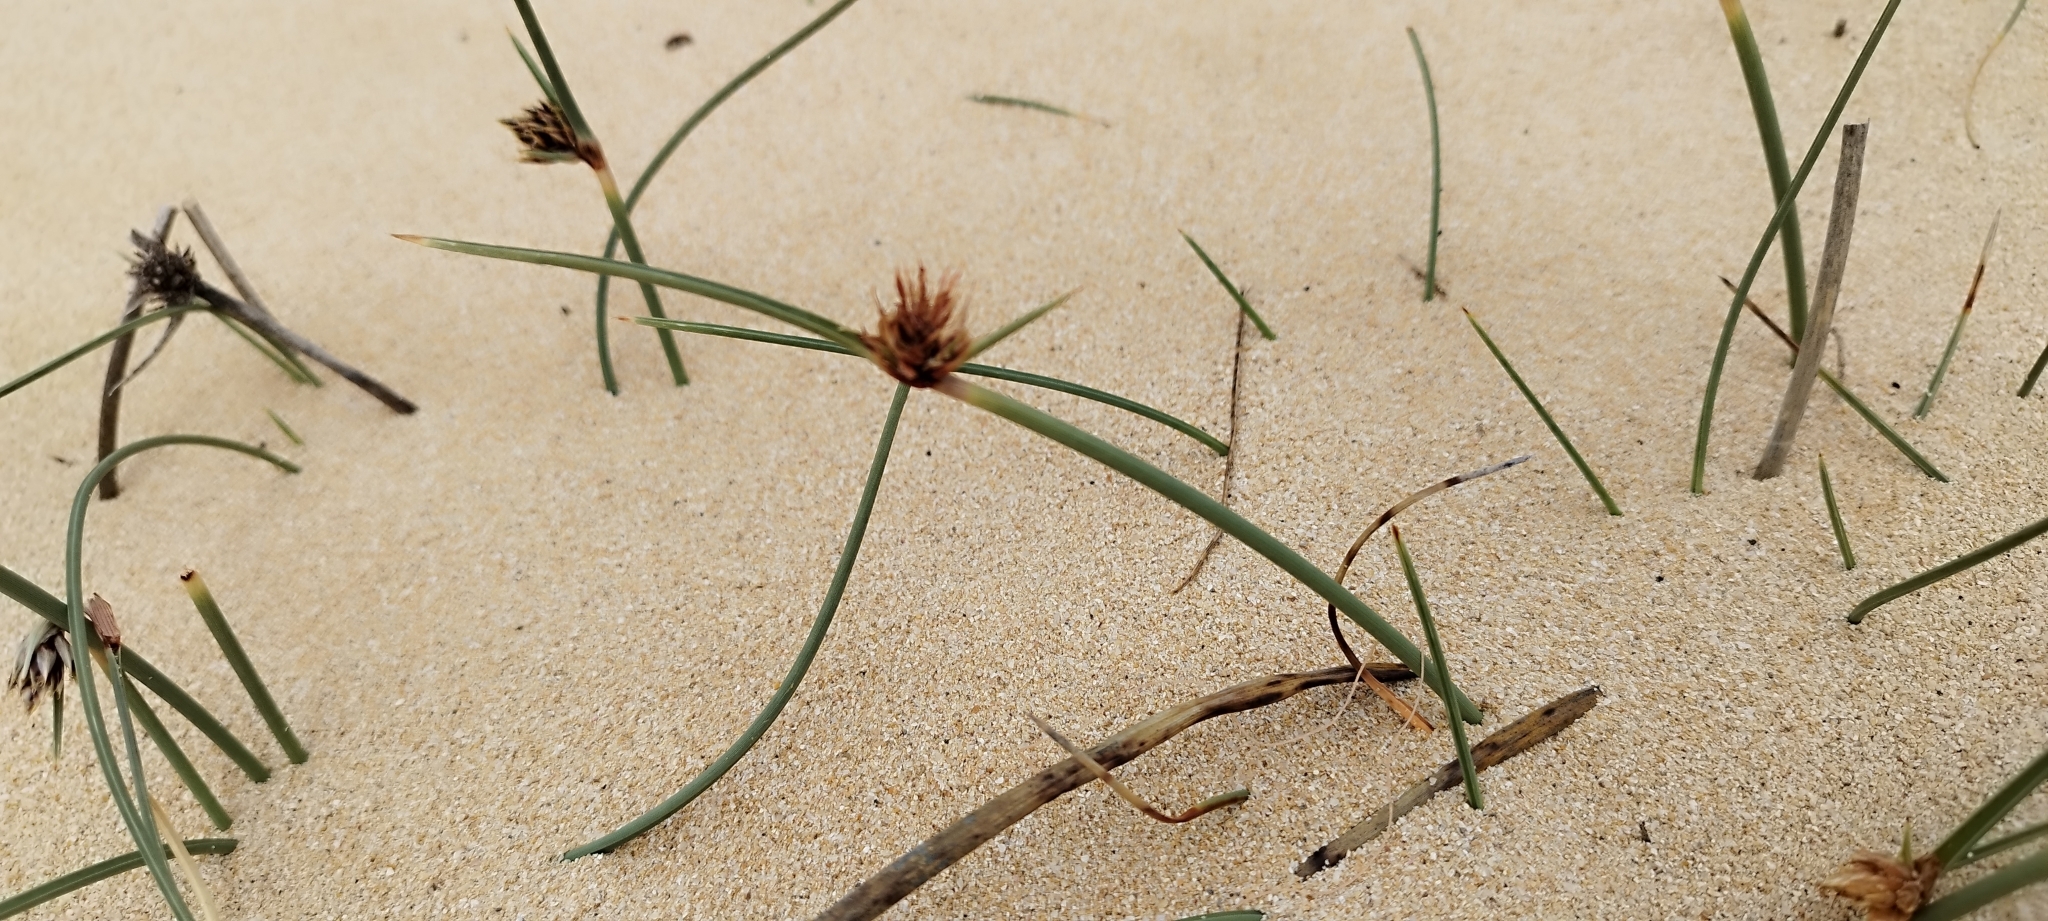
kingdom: Plantae
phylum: Tracheophyta
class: Liliopsida
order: Poales
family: Cyperaceae
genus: Cyperus
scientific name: Cyperus capitatus
